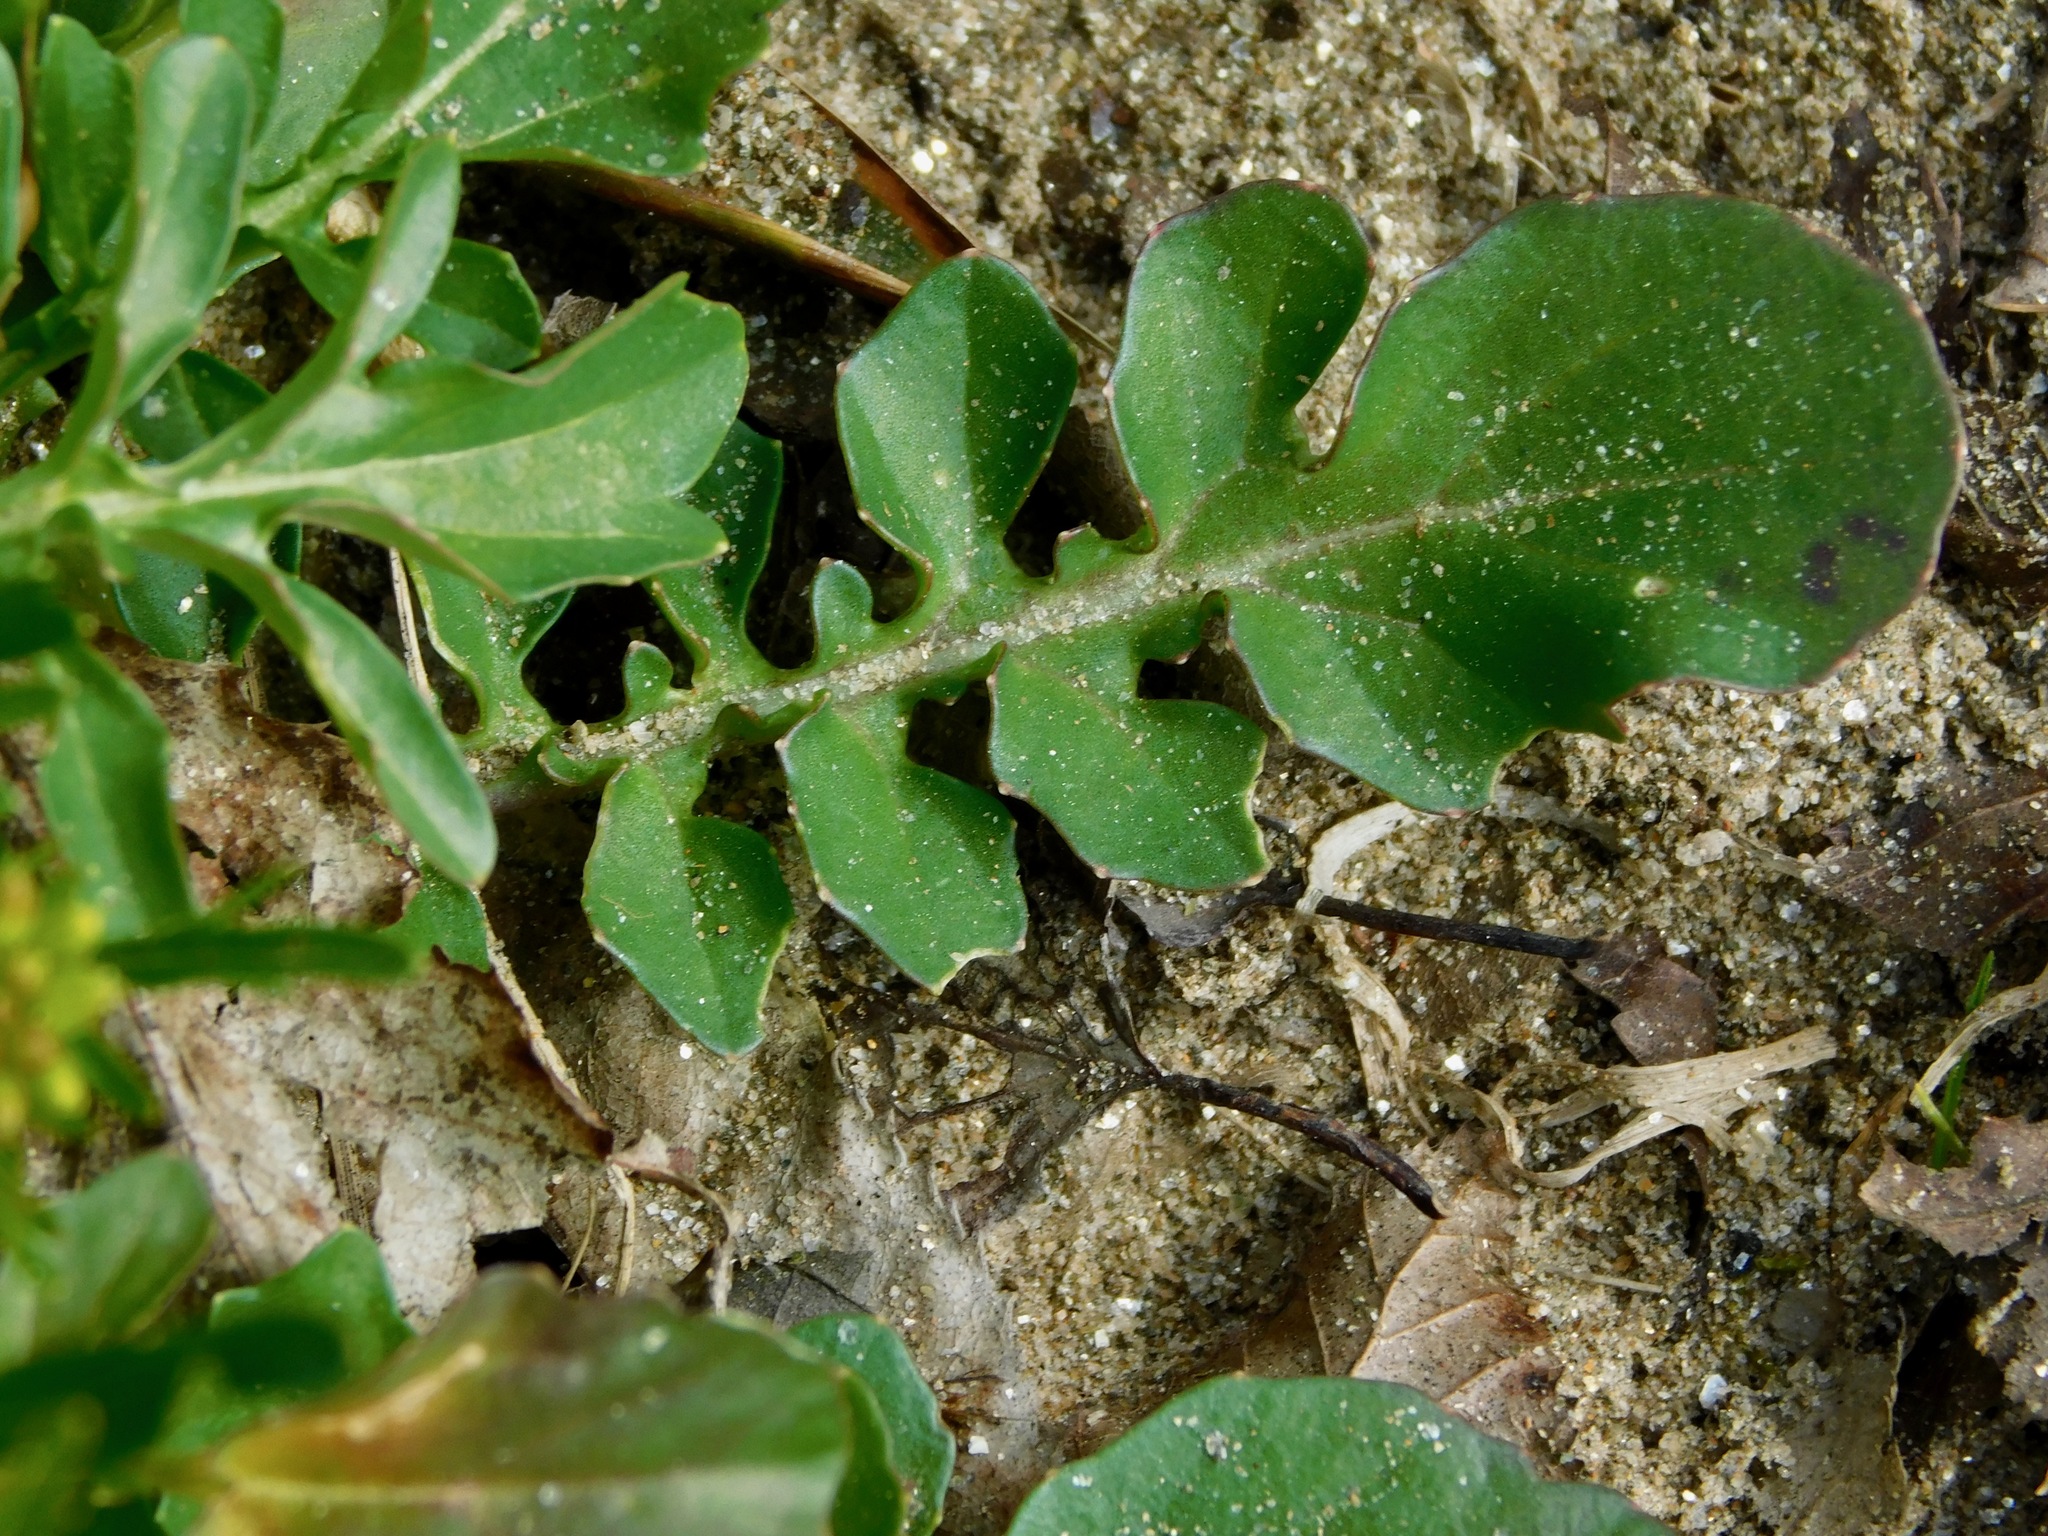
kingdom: Plantae
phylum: Tracheophyta
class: Magnoliopsida
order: Brassicales
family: Brassicaceae
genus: Barbarea
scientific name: Barbarea vulgaris
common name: Cressy-greens
